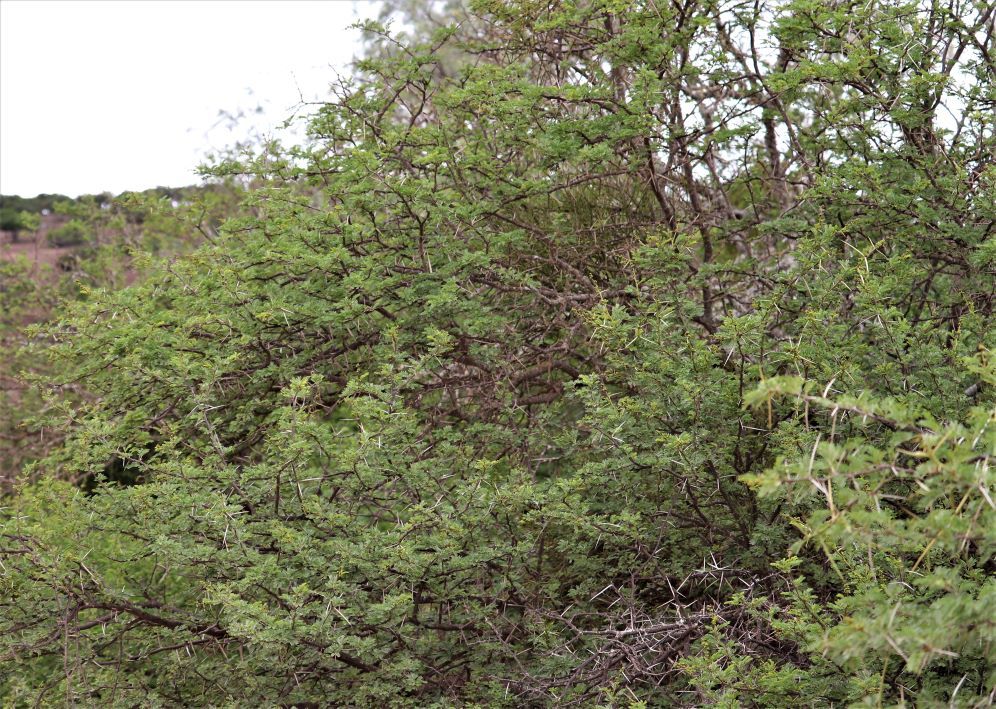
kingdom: Plantae
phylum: Tracheophyta
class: Magnoliopsida
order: Fabales
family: Fabaceae
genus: Vachellia
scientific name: Vachellia karroo
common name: Sweet thorn
